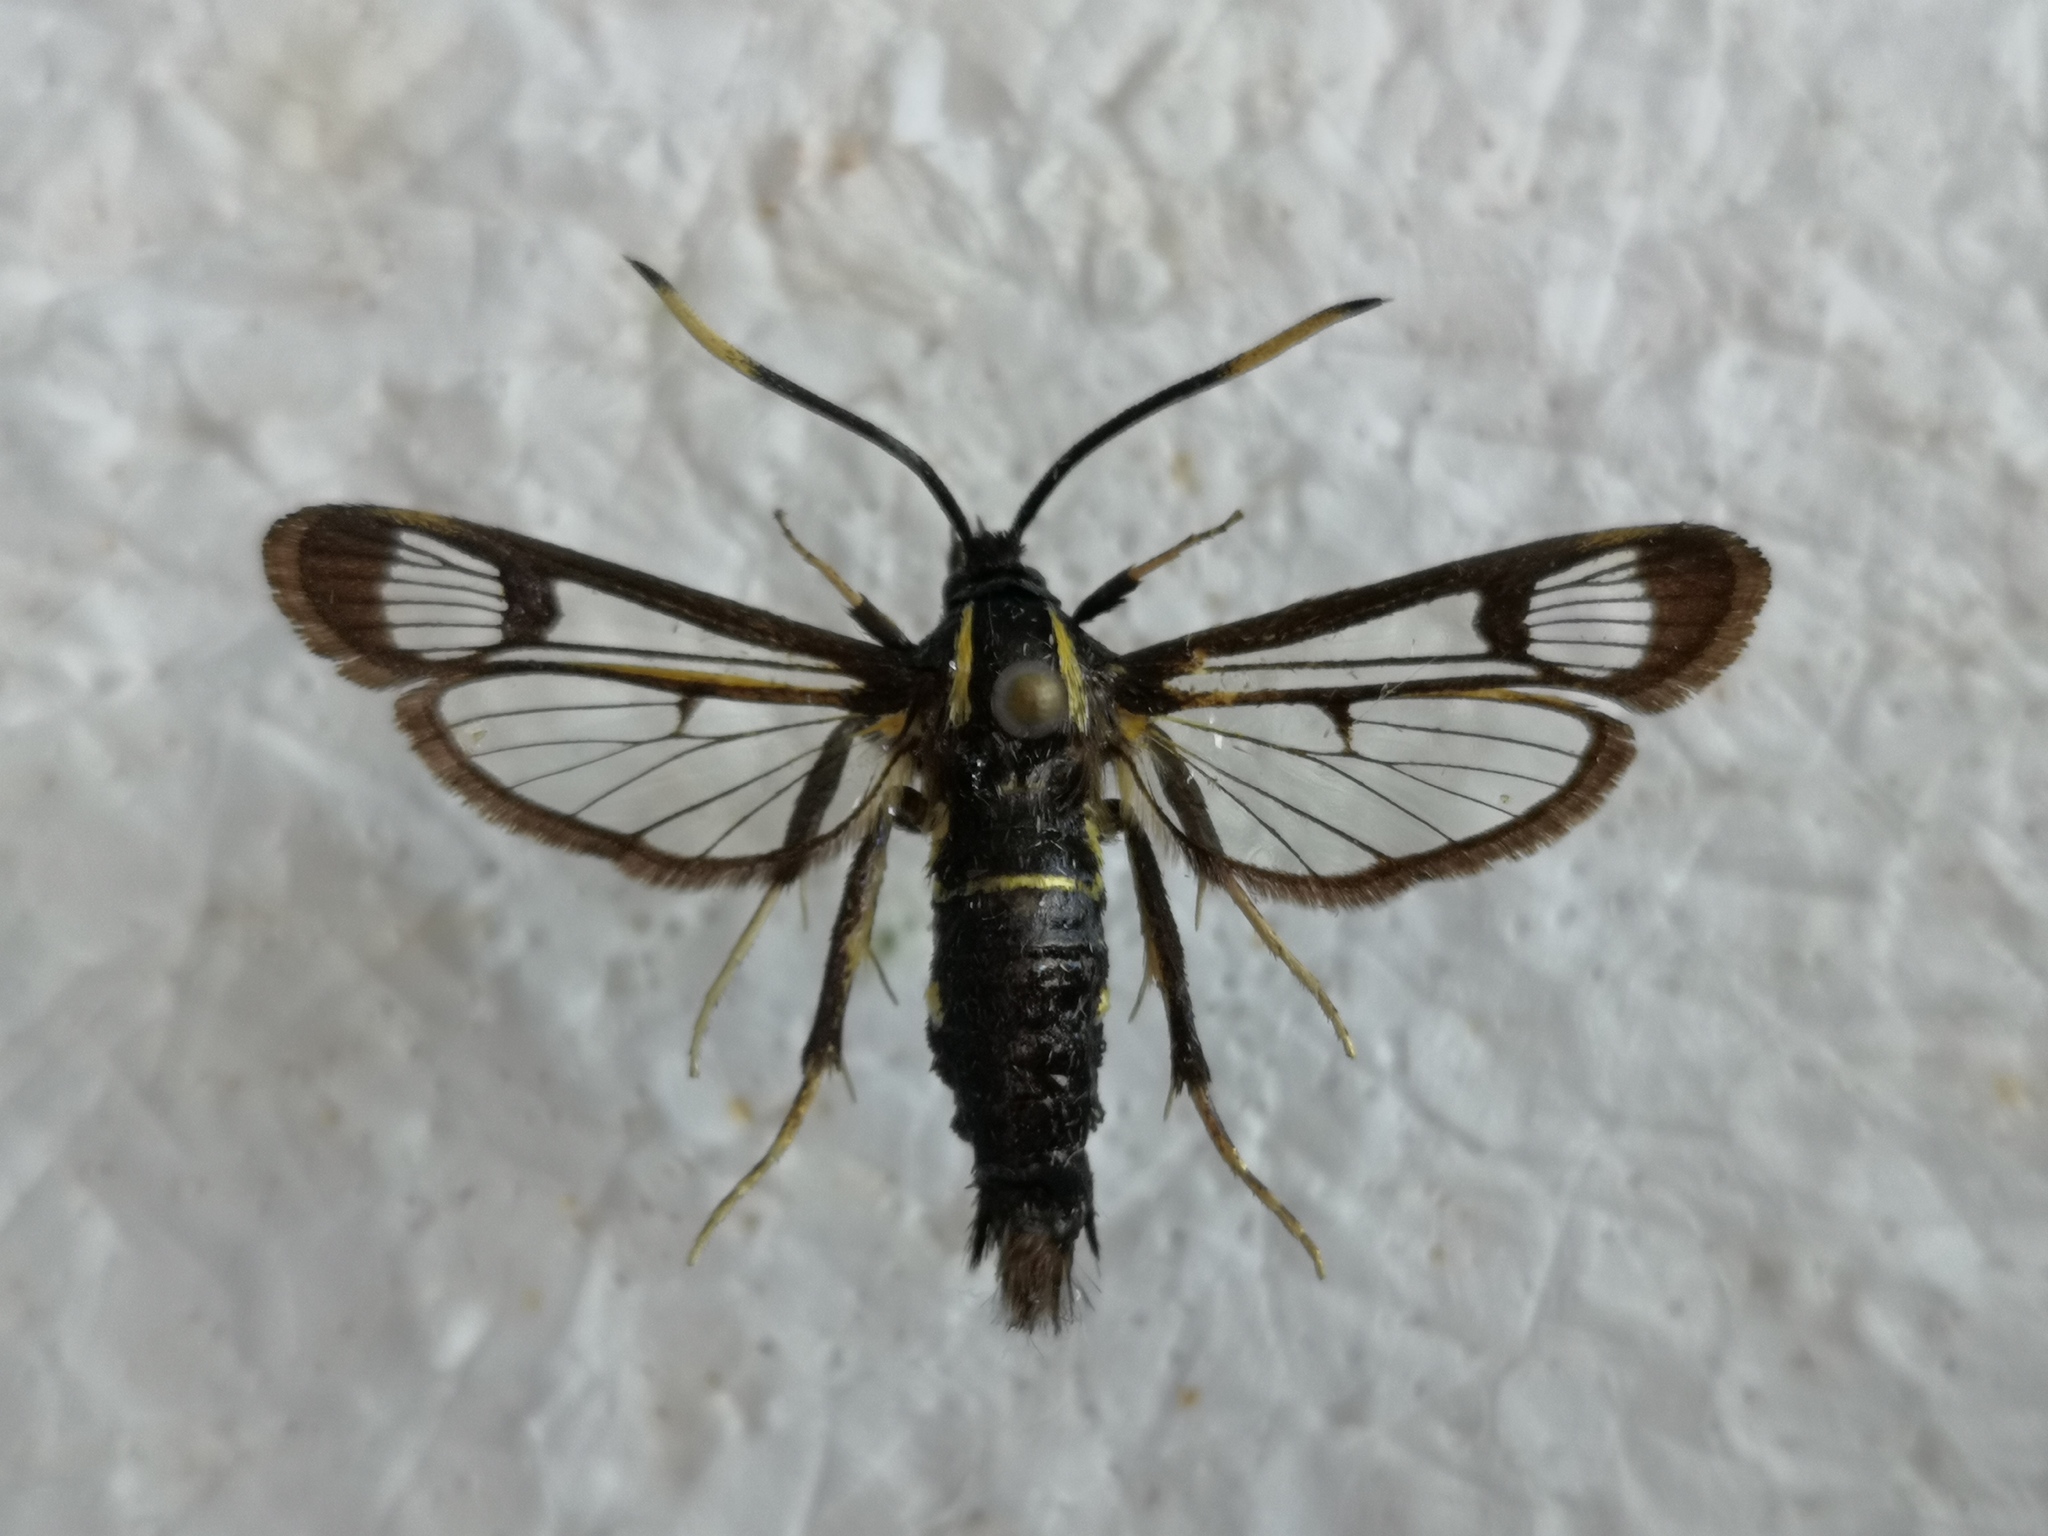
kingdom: Animalia
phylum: Arthropoda
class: Insecta
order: Lepidoptera
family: Sesiidae
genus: Synanthedon
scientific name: Synanthedon spheciformis
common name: White-barred clearwing
